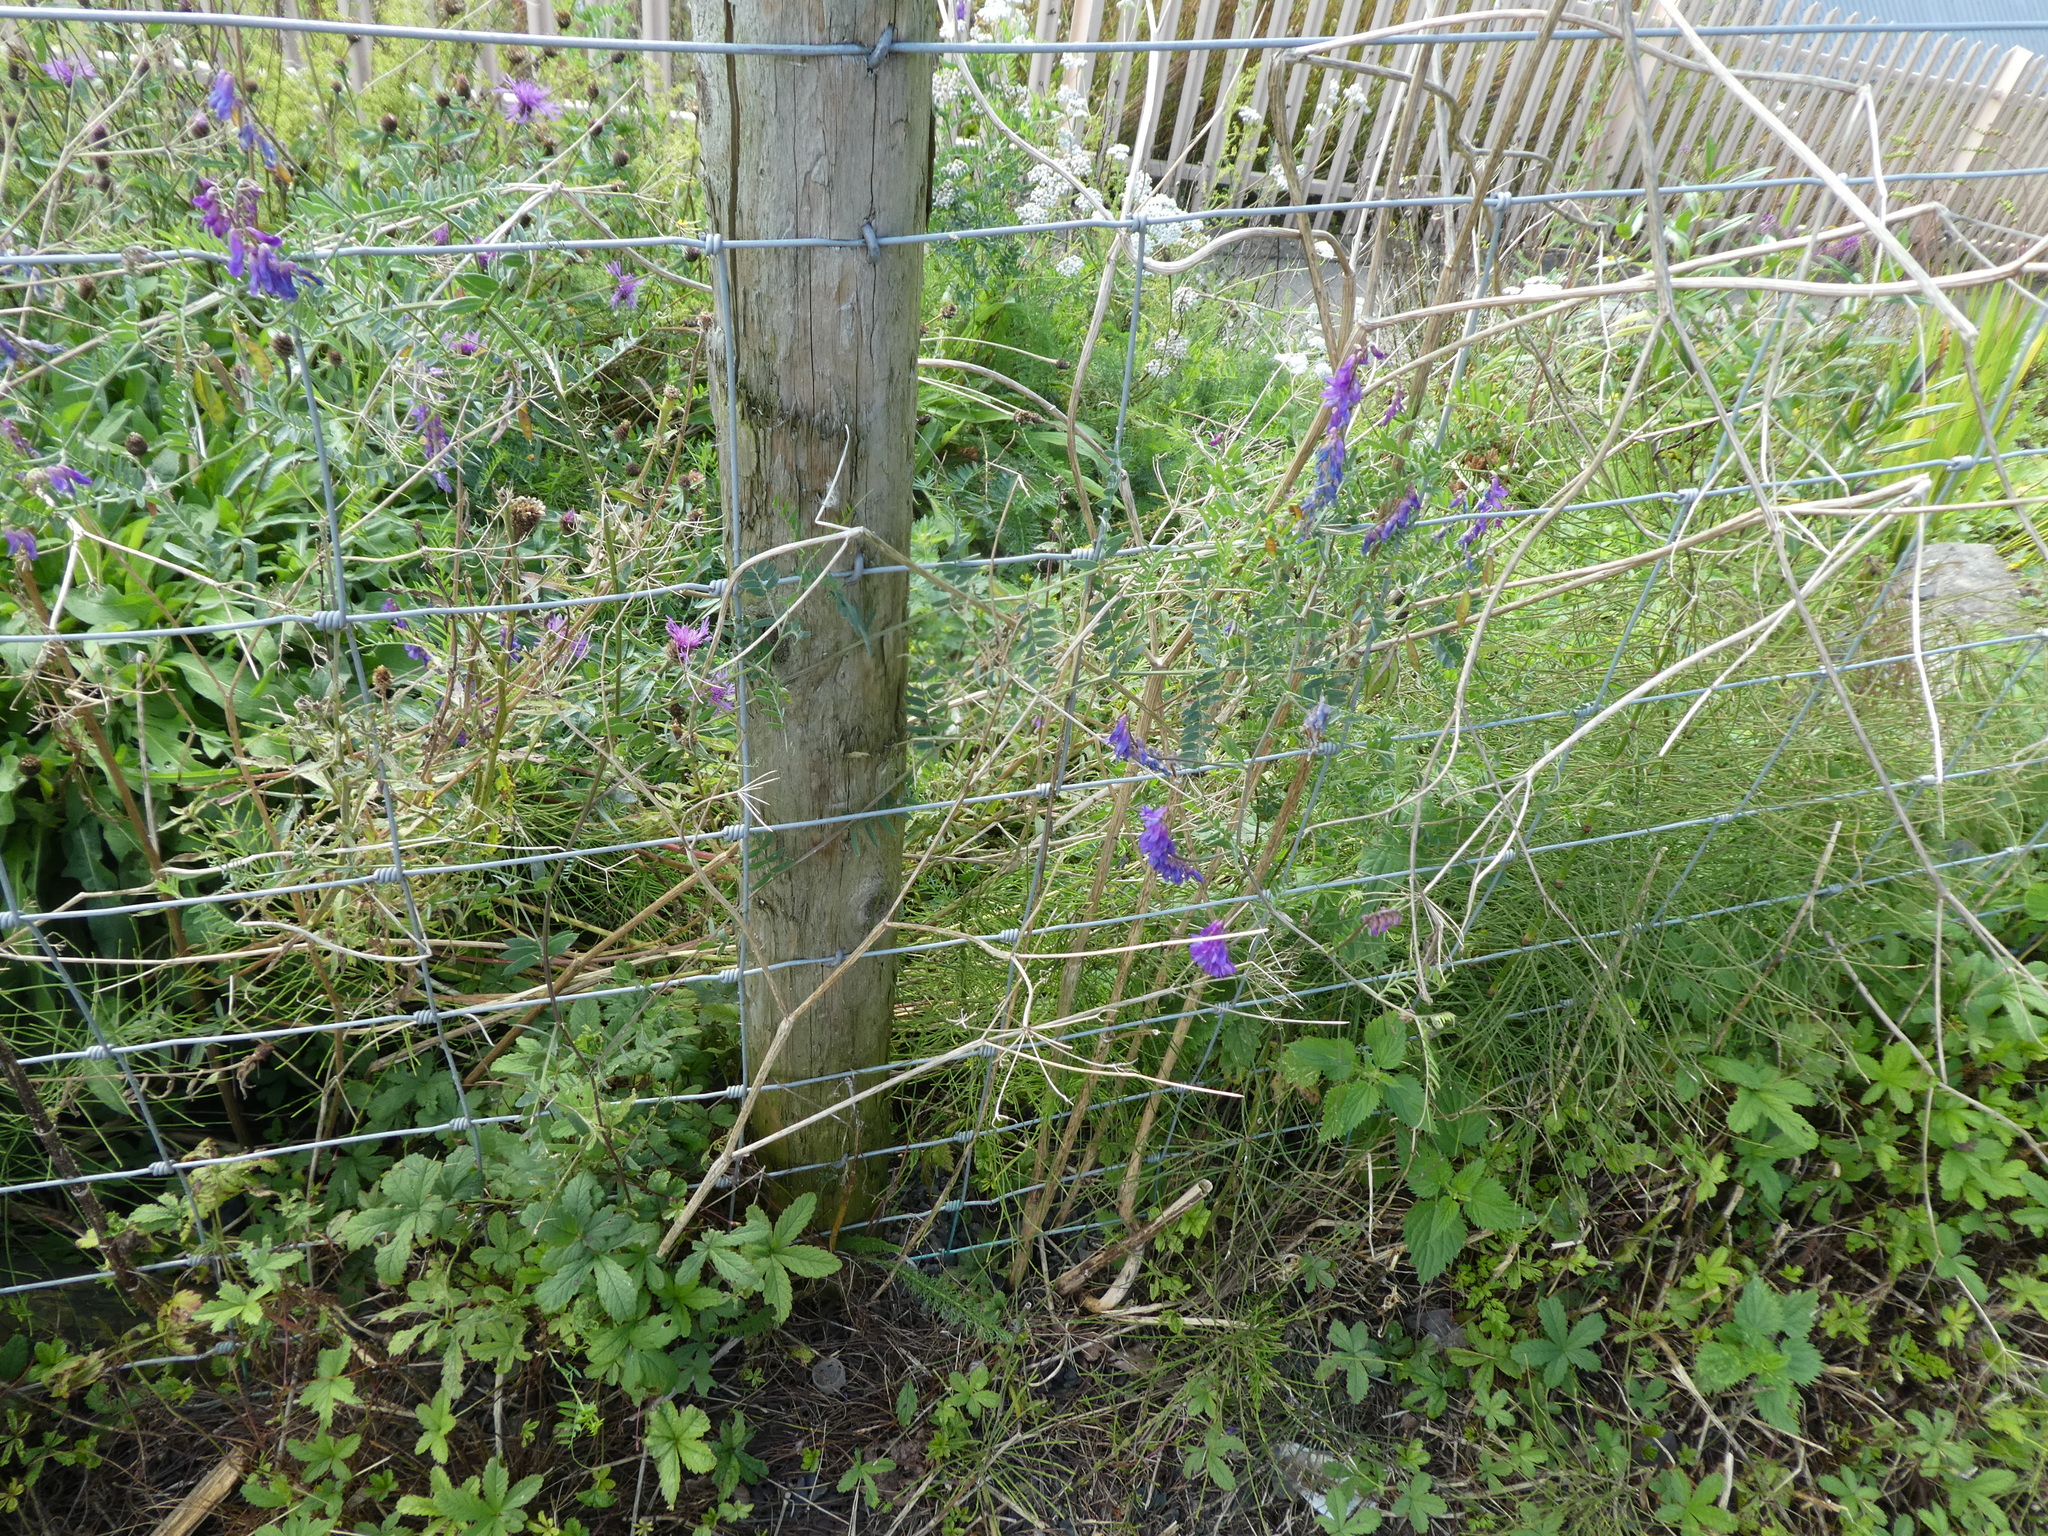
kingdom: Plantae
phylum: Tracheophyta
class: Magnoliopsida
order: Fabales
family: Fabaceae
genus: Vicia
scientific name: Vicia cracca
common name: Bird vetch
